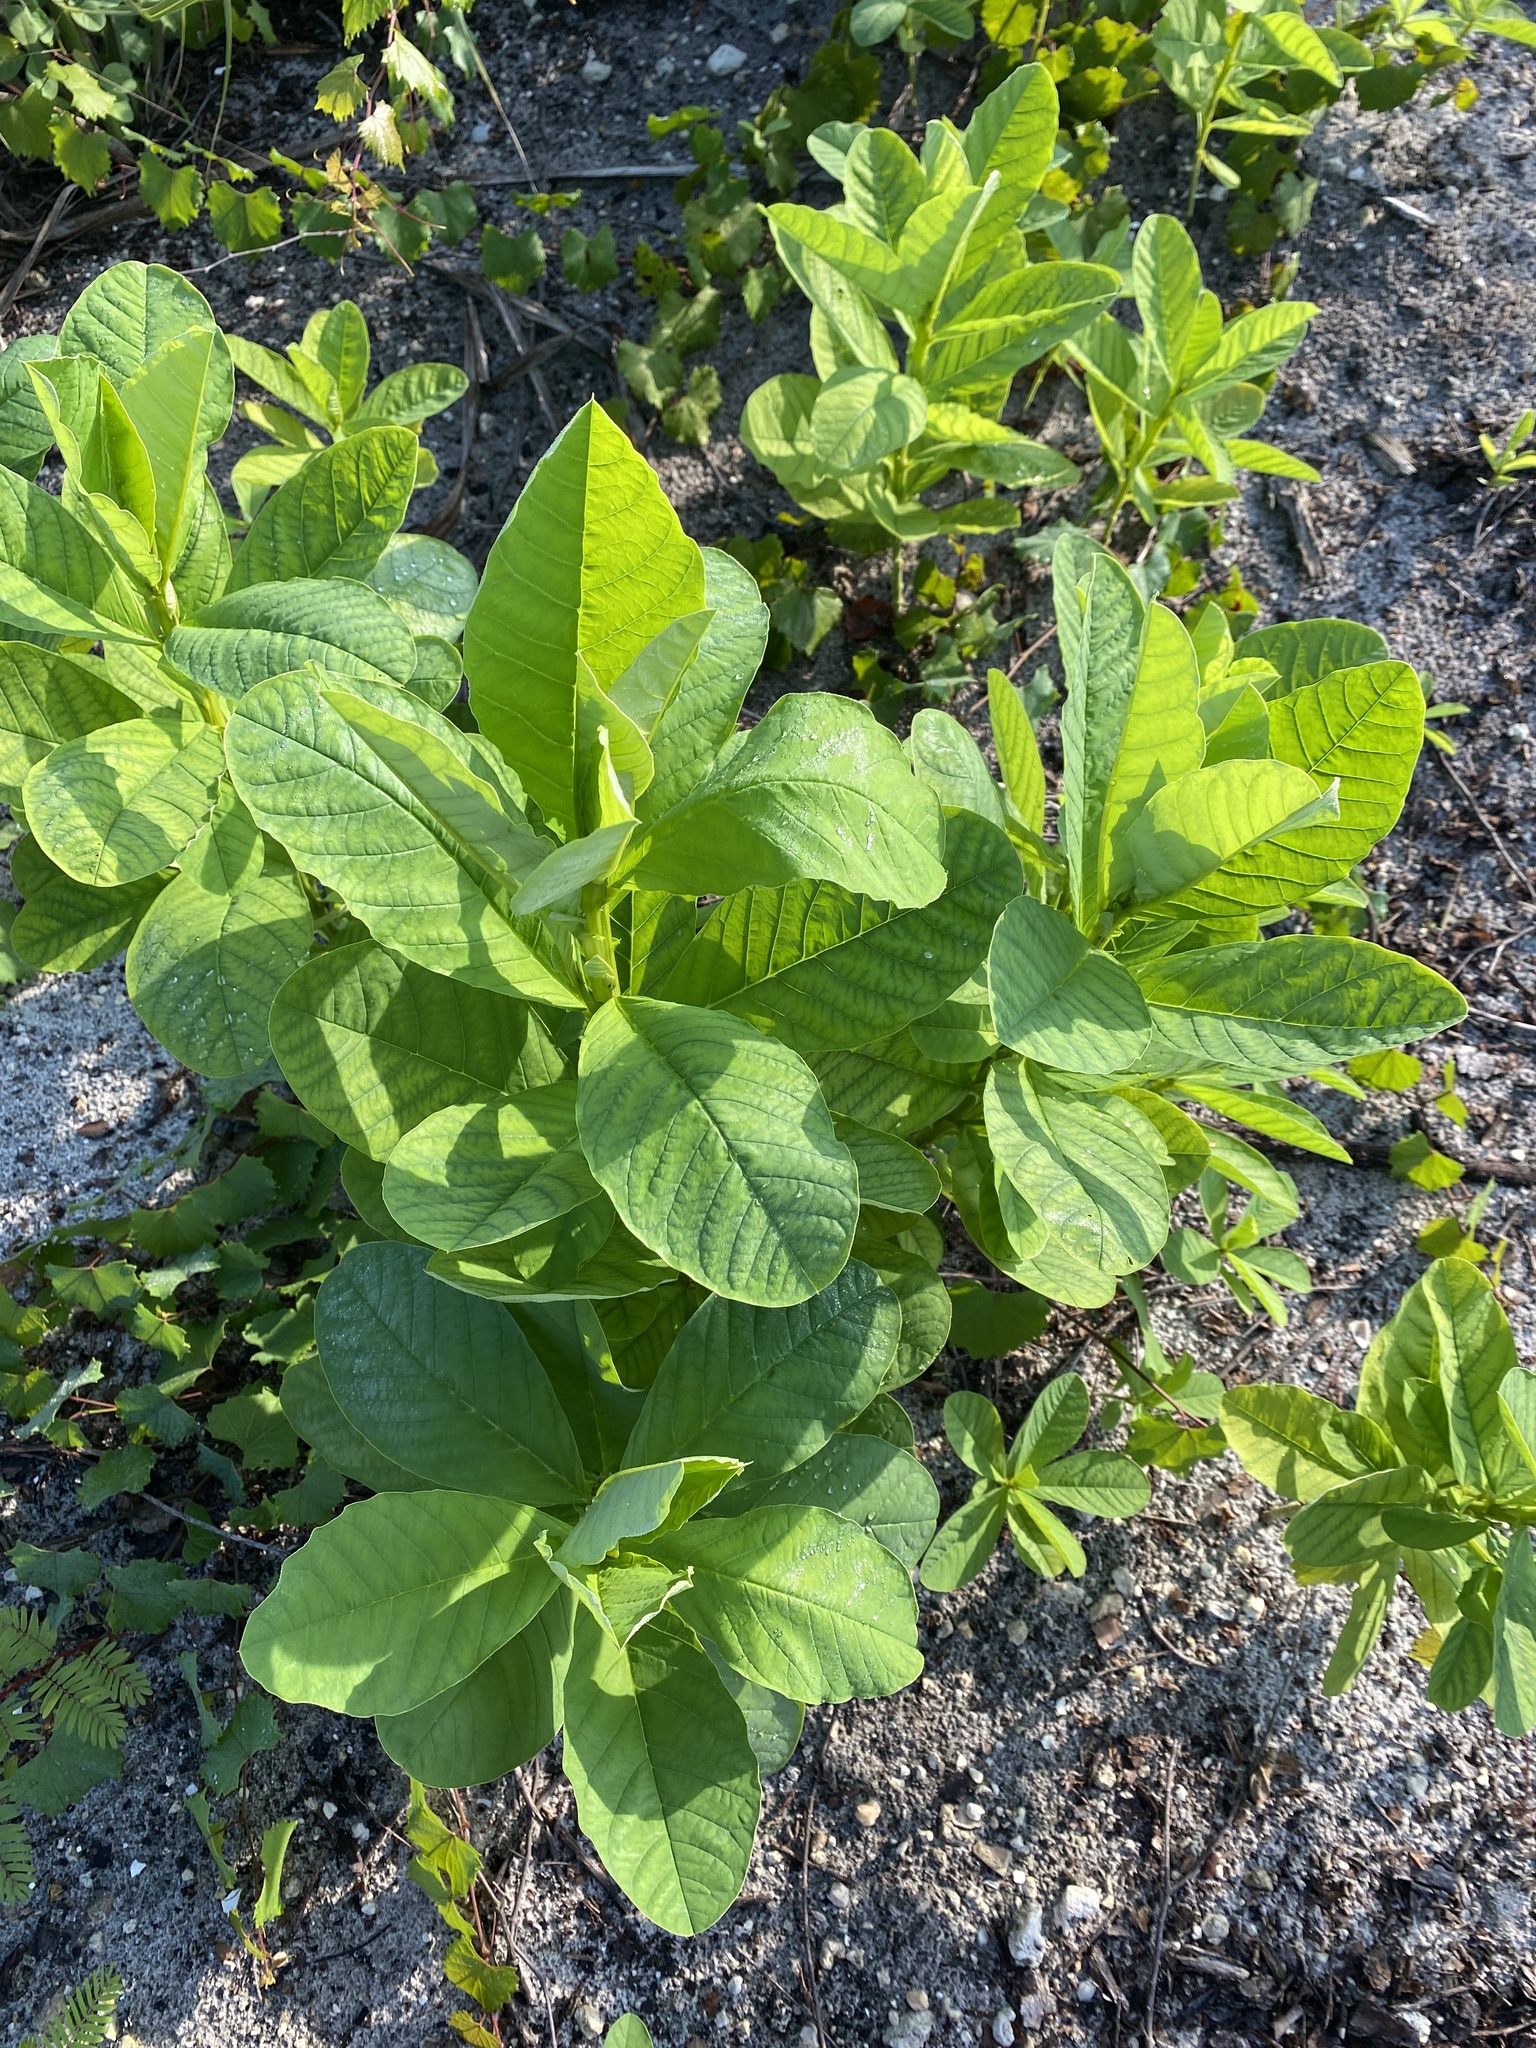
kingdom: Plantae
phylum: Tracheophyta
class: Magnoliopsida
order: Fabales
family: Fabaceae
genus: Crotalaria
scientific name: Crotalaria spectabilis
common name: Showy rattlebox
